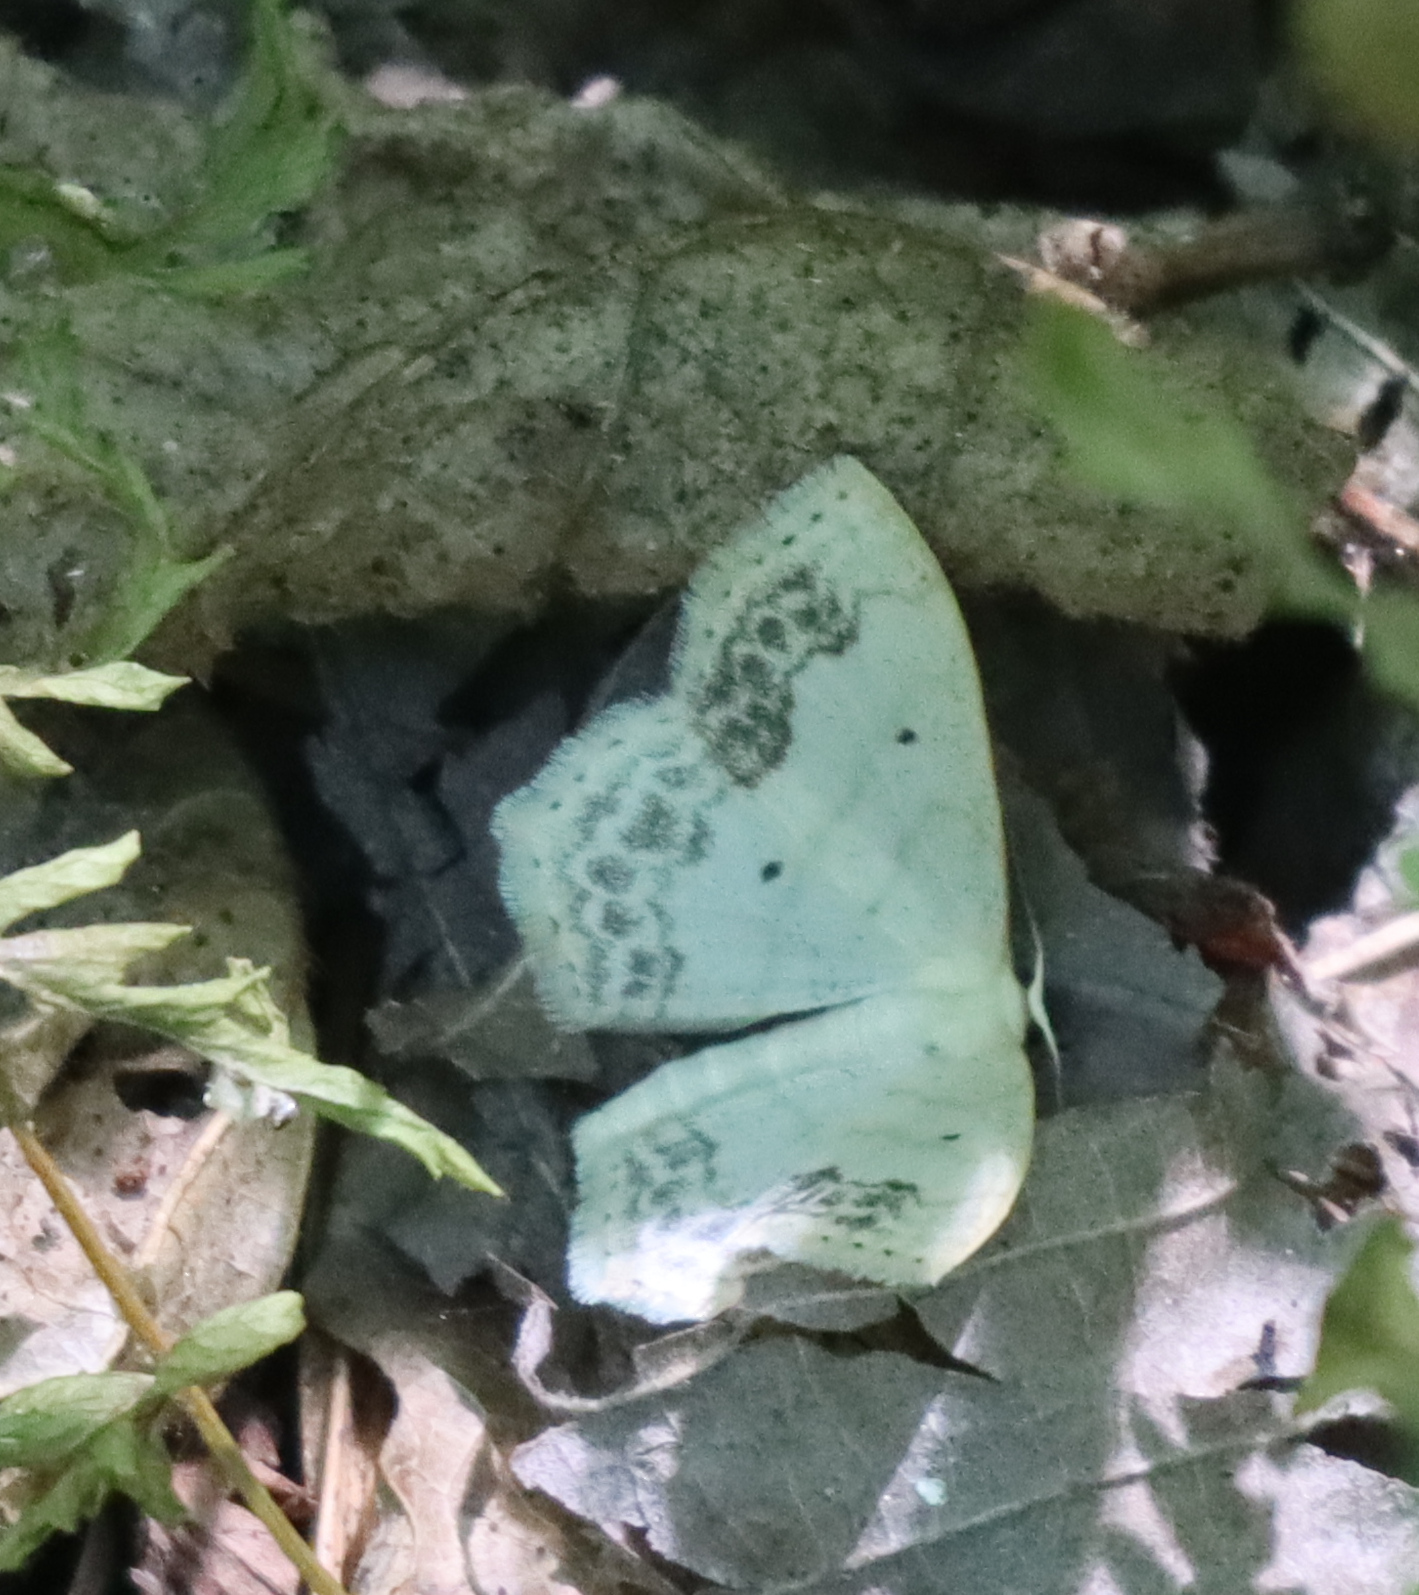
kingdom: Animalia
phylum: Arthropoda
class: Insecta
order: Lepidoptera
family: Geometridae
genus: Scopula
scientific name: Scopula limboundata
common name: Large lace border
